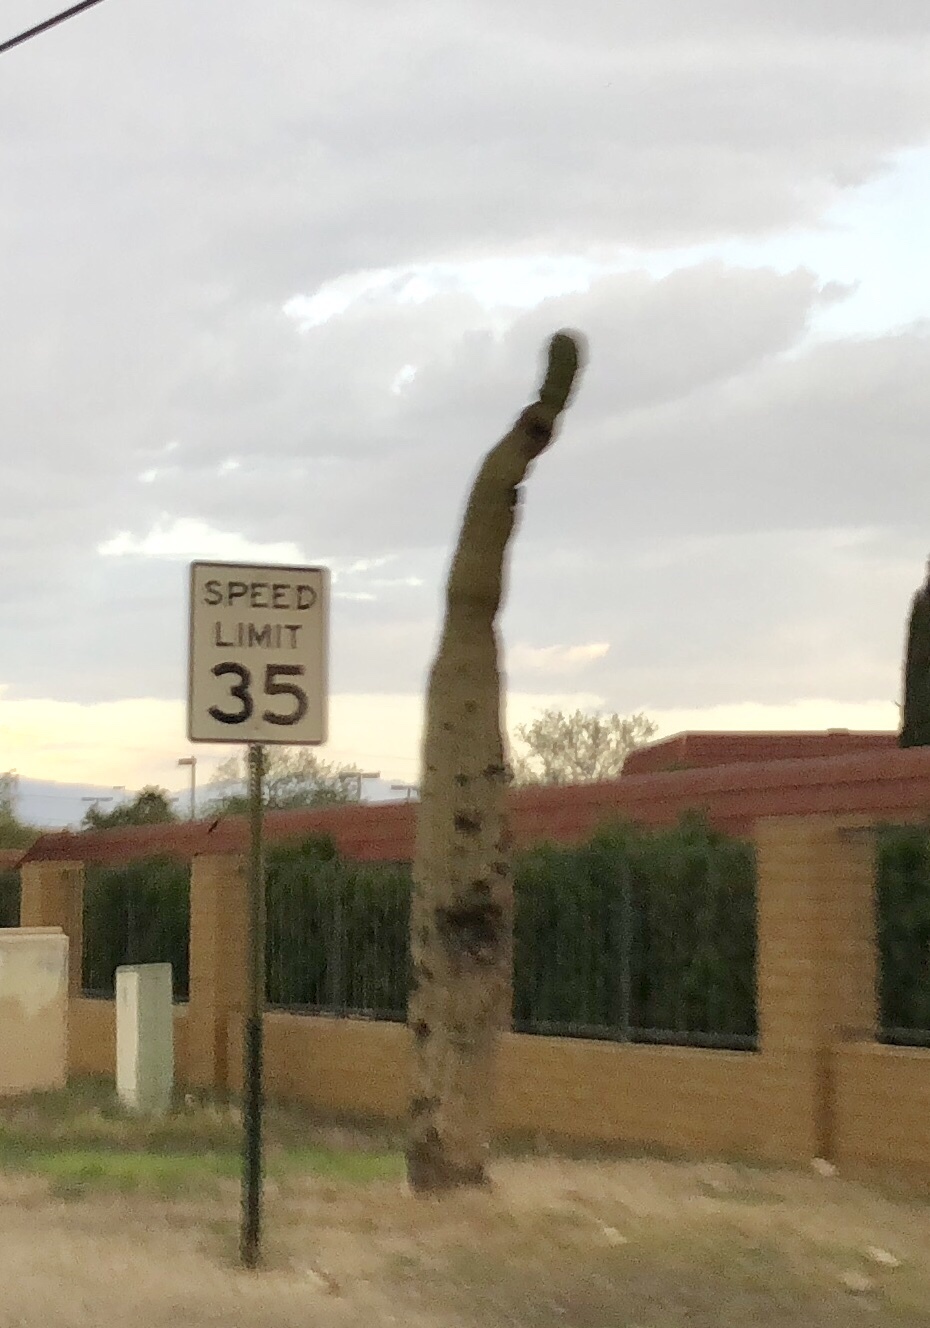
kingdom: Plantae
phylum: Tracheophyta
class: Magnoliopsida
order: Caryophyllales
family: Cactaceae
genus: Carnegiea
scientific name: Carnegiea gigantea
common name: Saguaro
